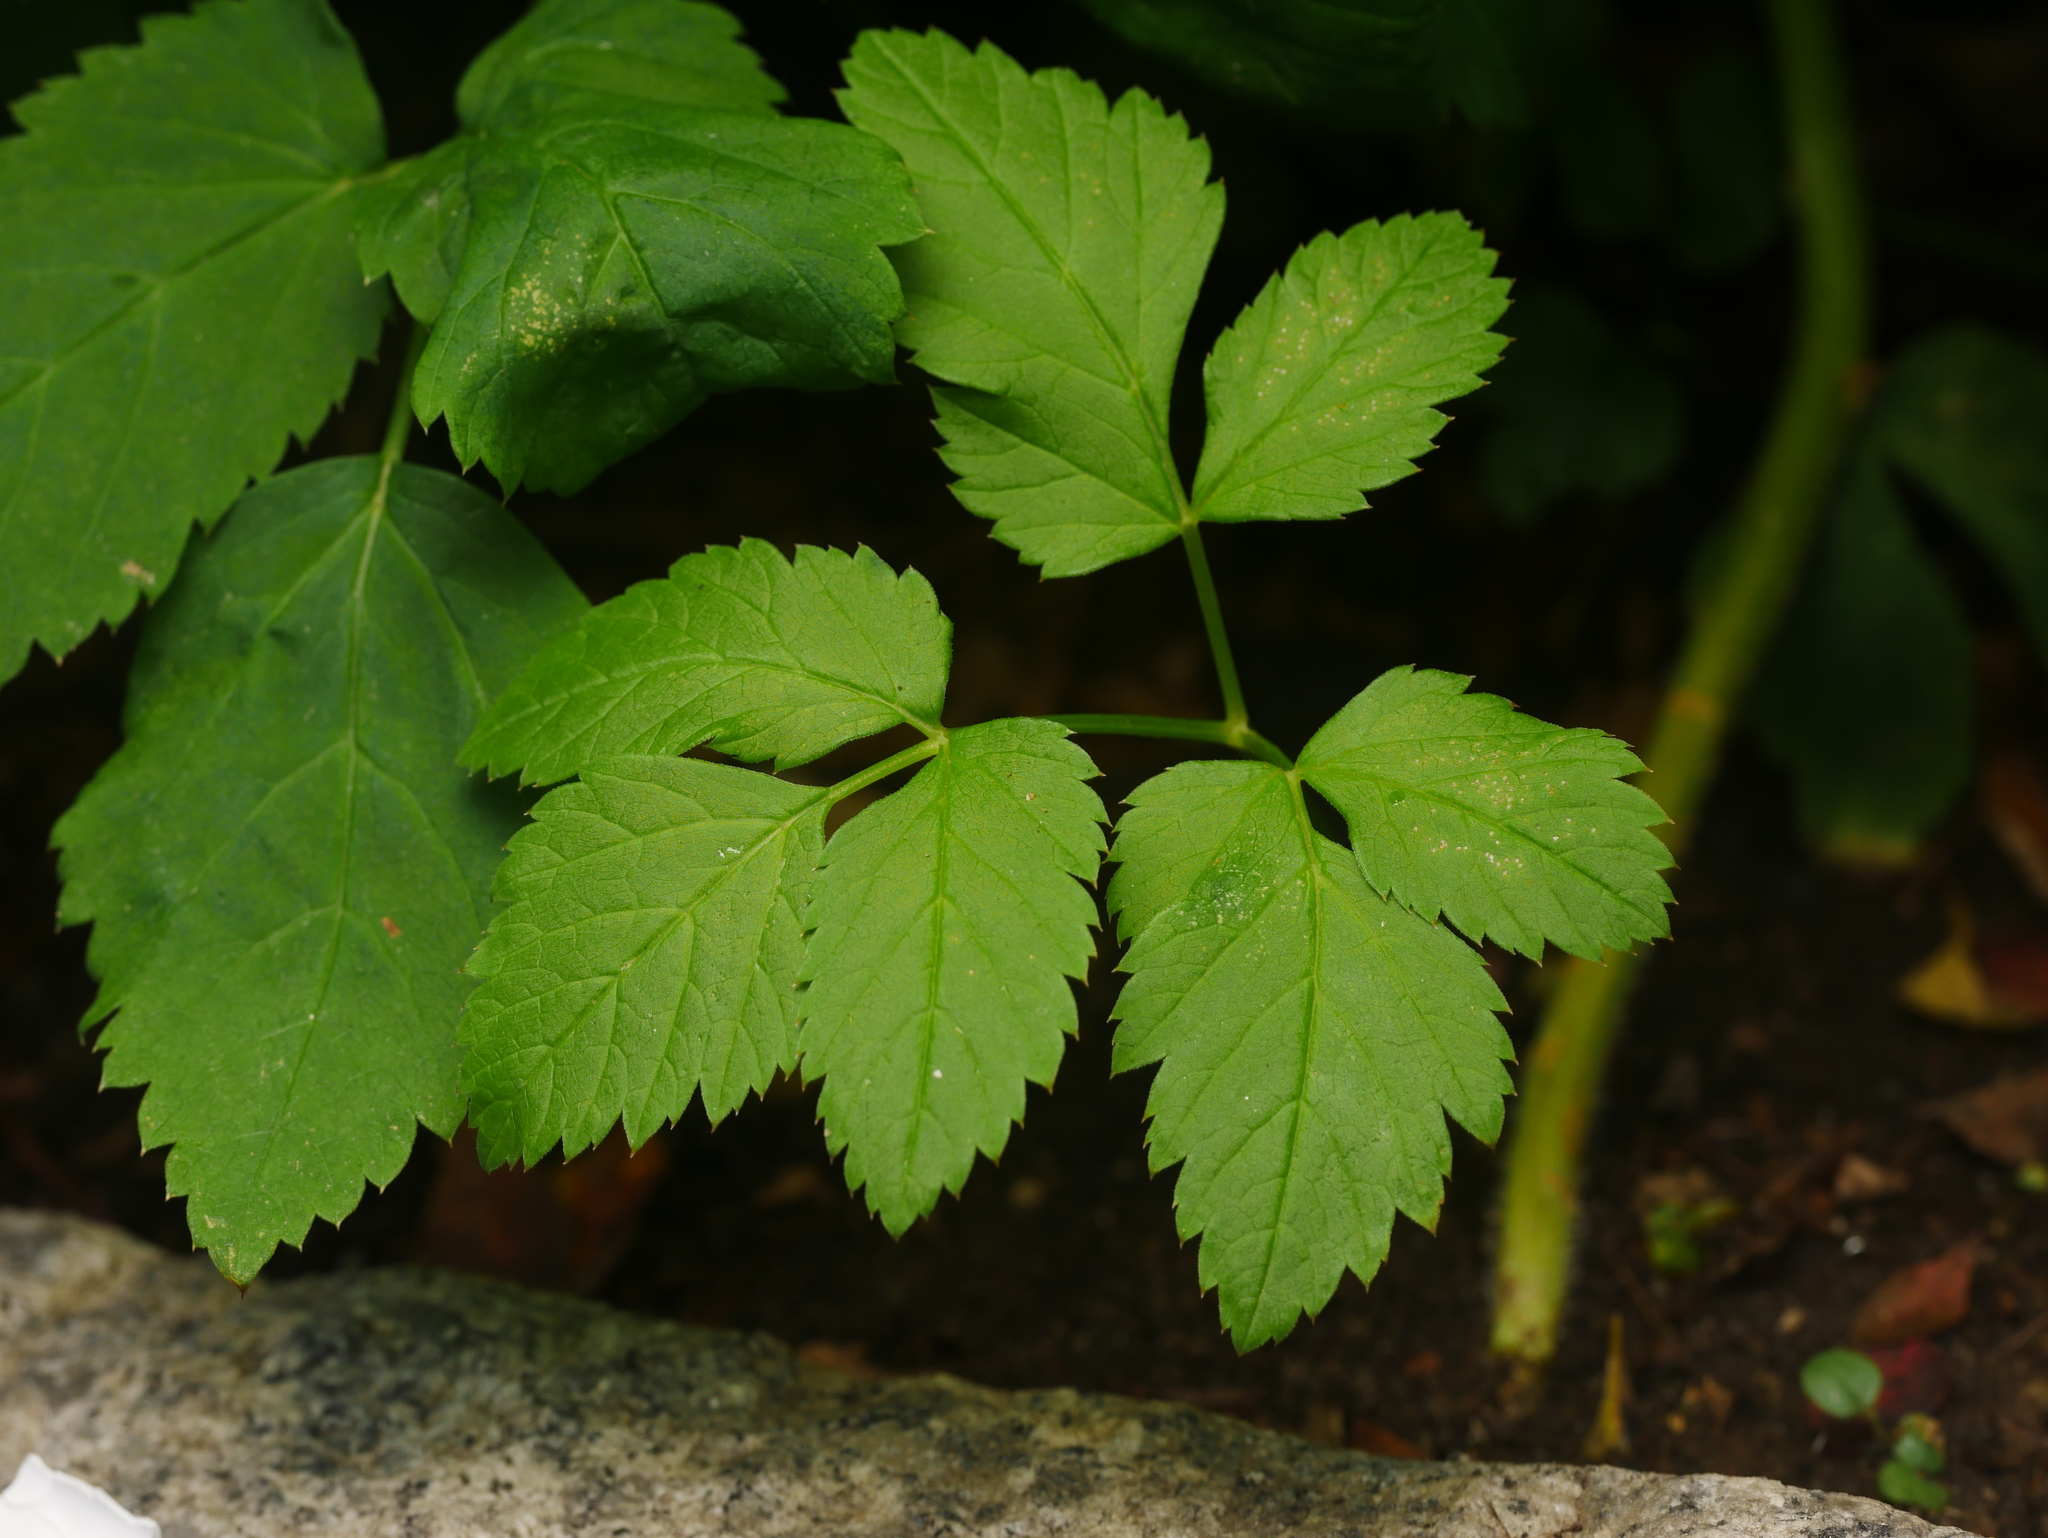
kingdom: Plantae
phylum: Tracheophyta
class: Magnoliopsida
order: Apiales
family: Apiaceae
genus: Aegopodium
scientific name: Aegopodium podagraria
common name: Ground-elder
